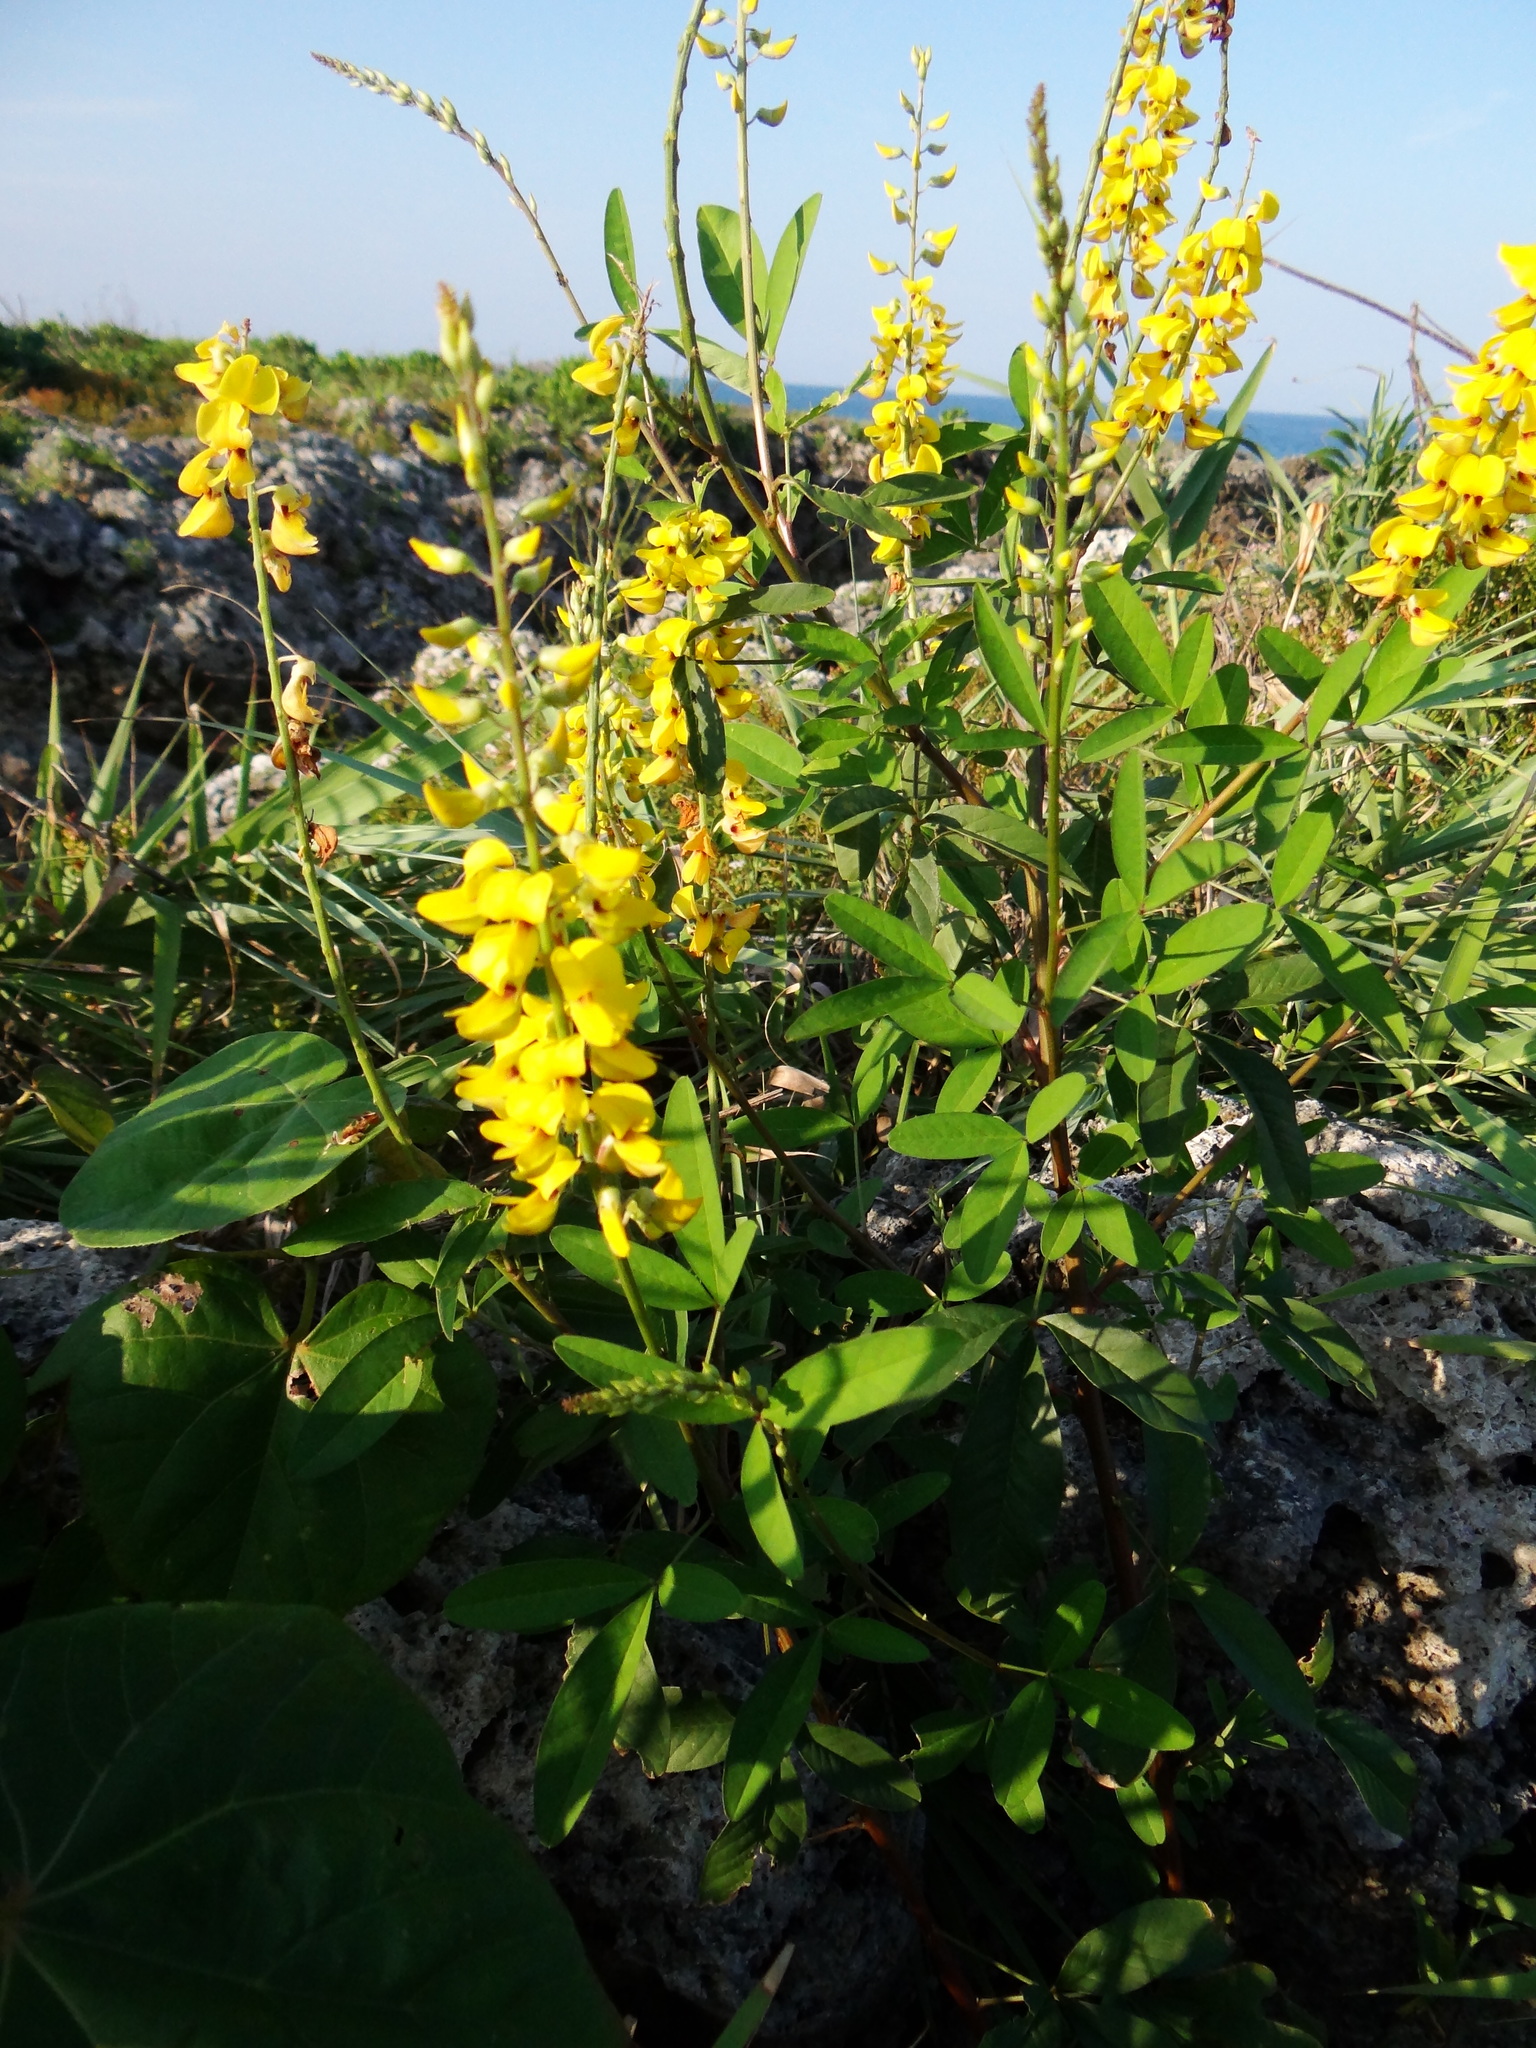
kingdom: Plantae
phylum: Tracheophyta
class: Magnoliopsida
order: Fabales
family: Fabaceae
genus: Crotalaria
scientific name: Crotalaria trichotoma
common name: West indian rattlebox
